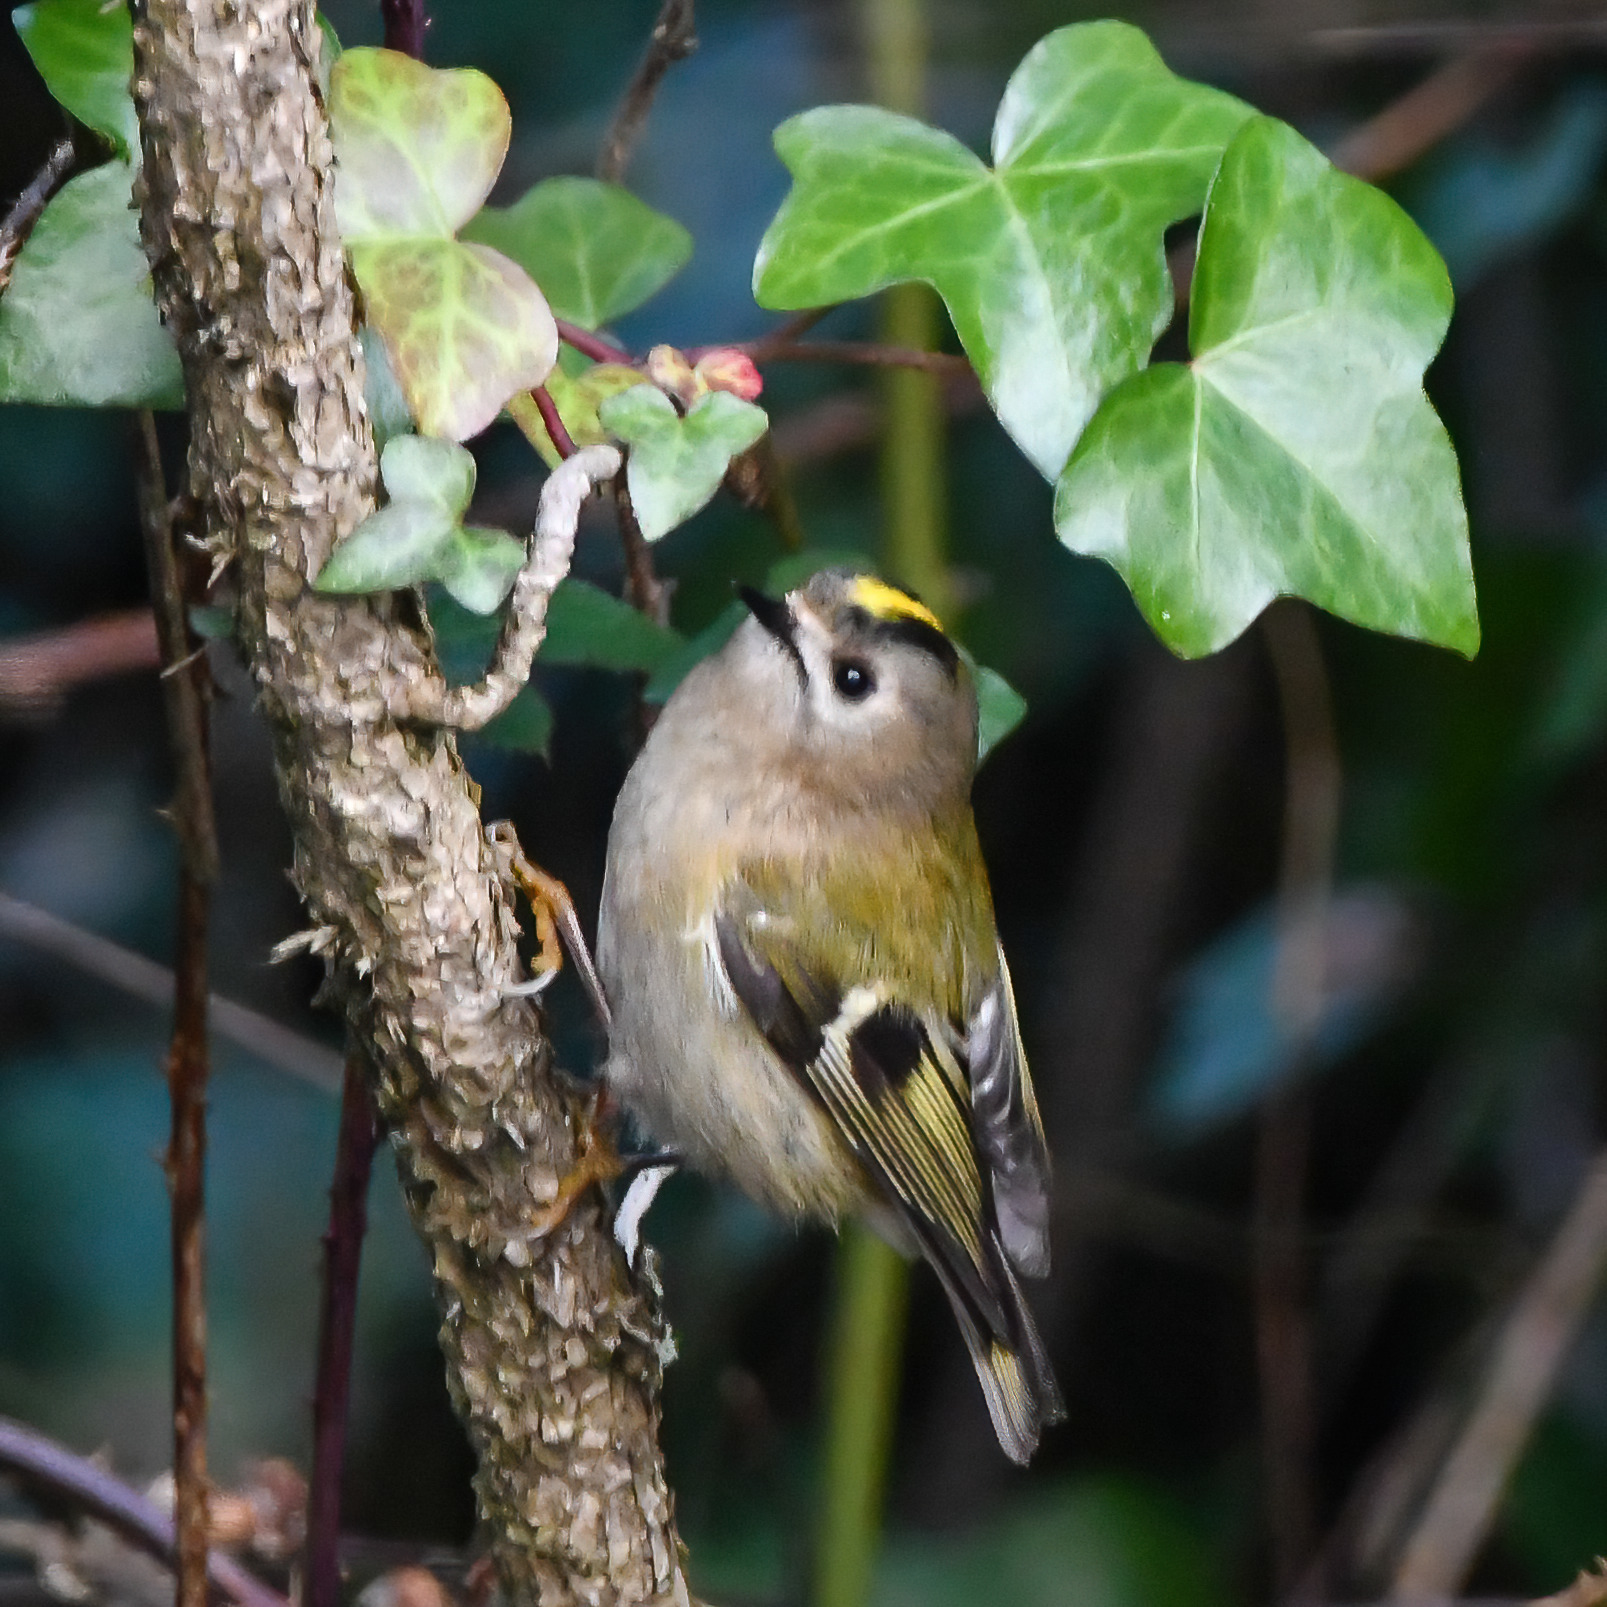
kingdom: Animalia
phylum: Chordata
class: Aves
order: Passeriformes
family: Regulidae
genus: Regulus
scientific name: Regulus regulus
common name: Goldcrest
